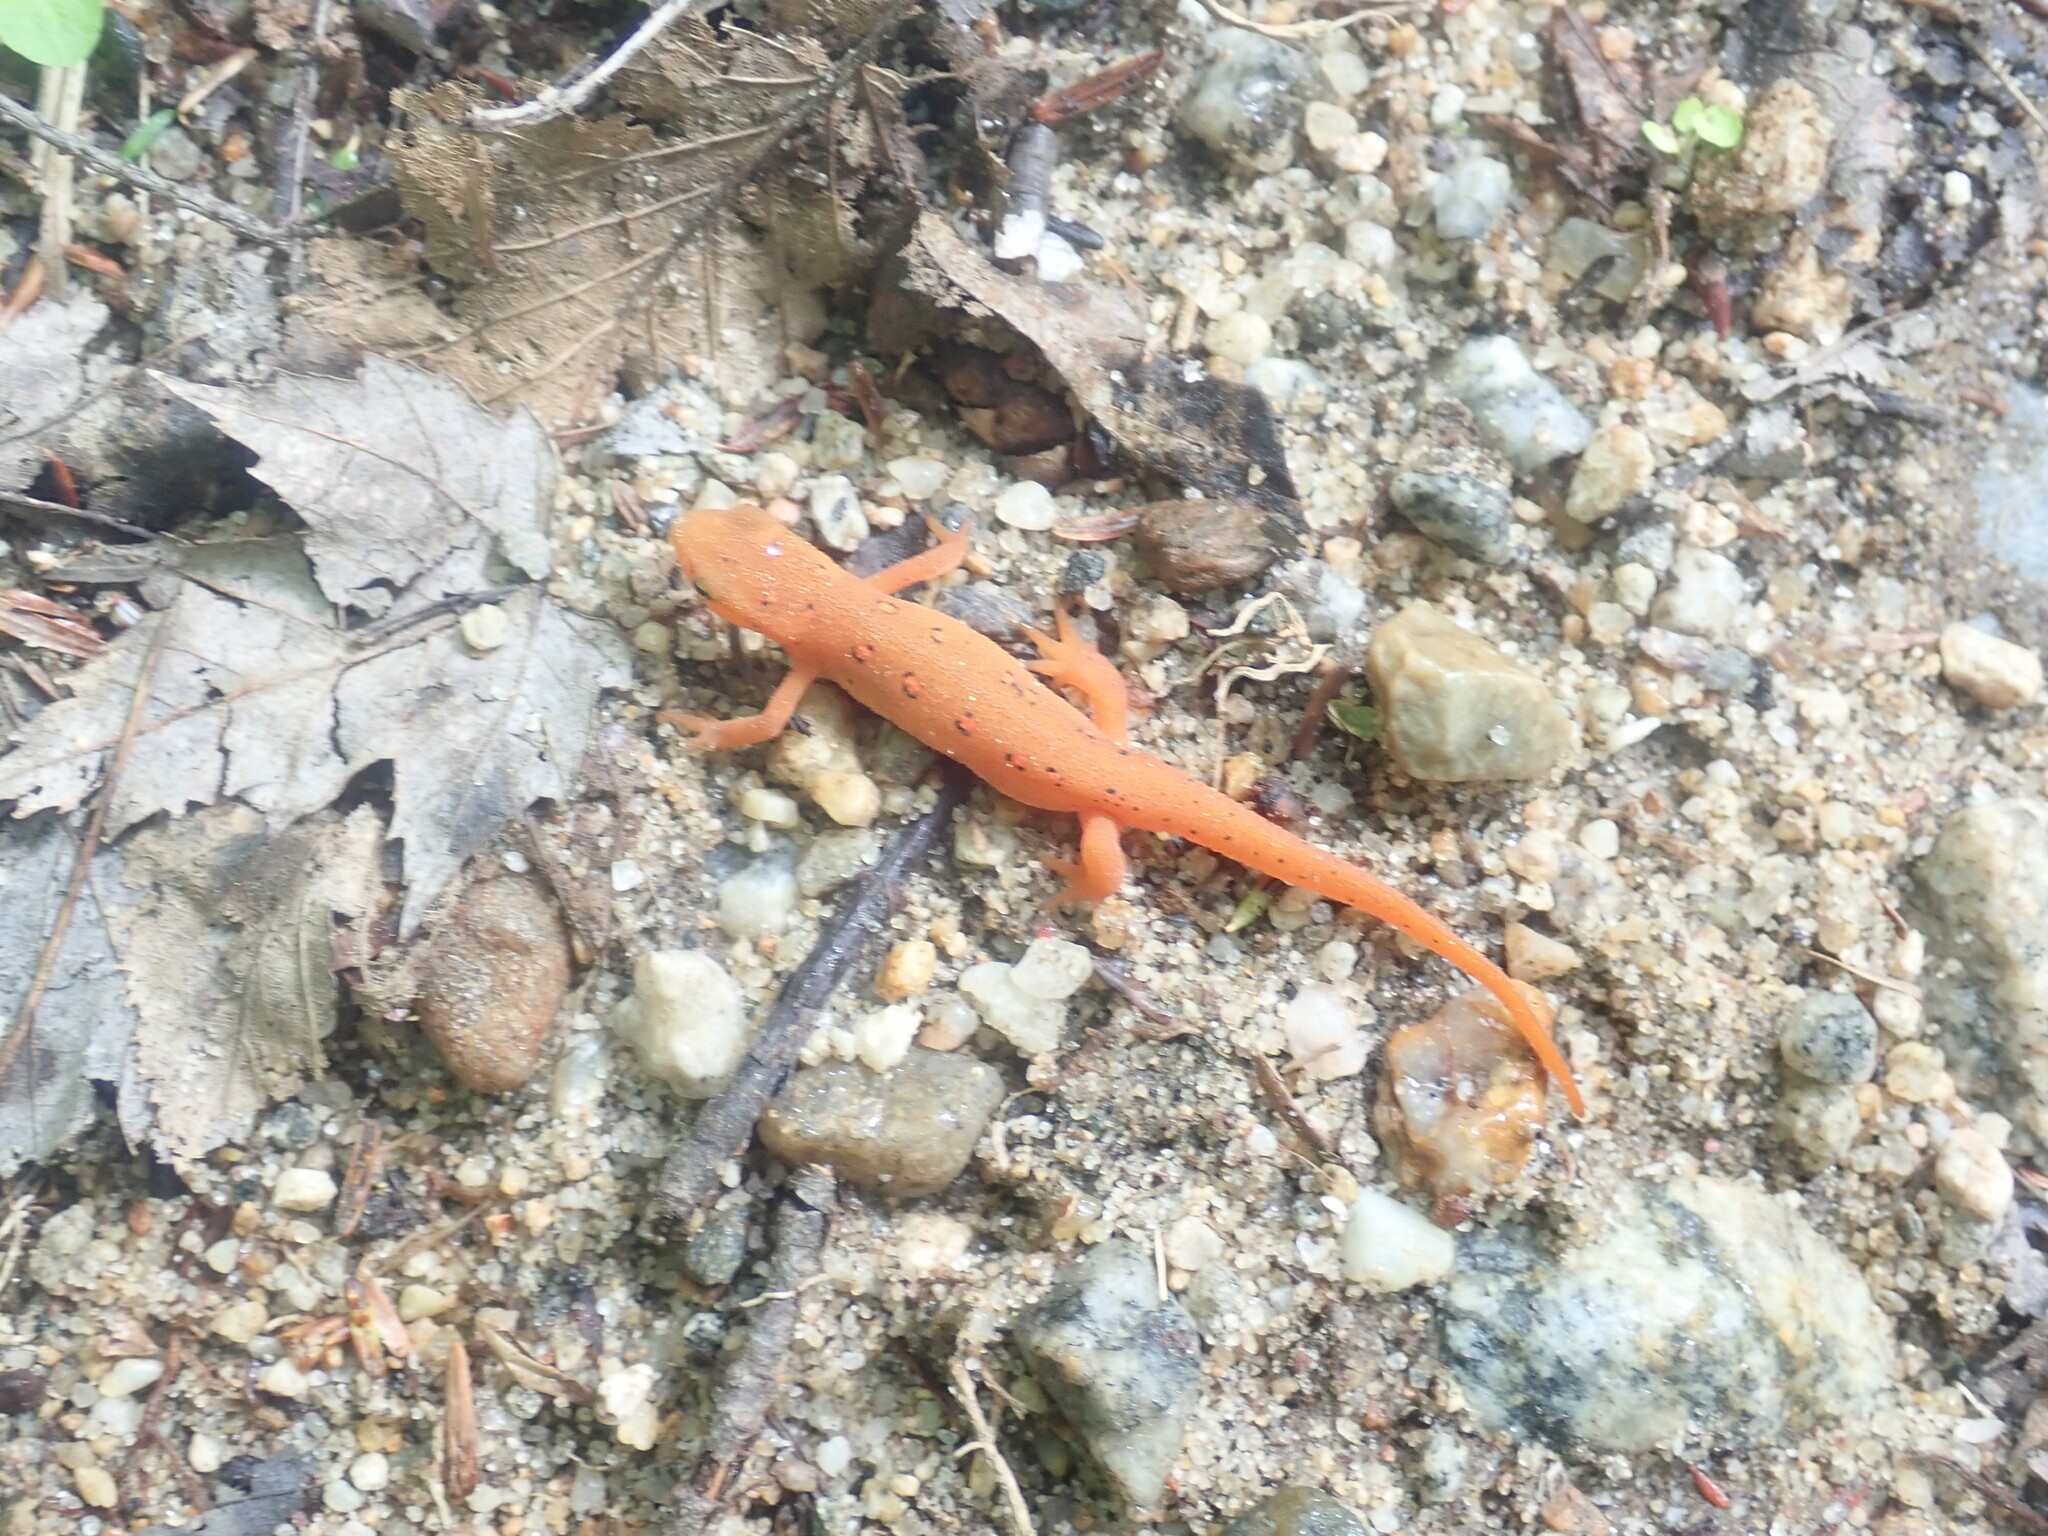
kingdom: Animalia
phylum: Chordata
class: Amphibia
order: Caudata
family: Salamandridae
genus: Notophthalmus
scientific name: Notophthalmus viridescens
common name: Eastern newt
